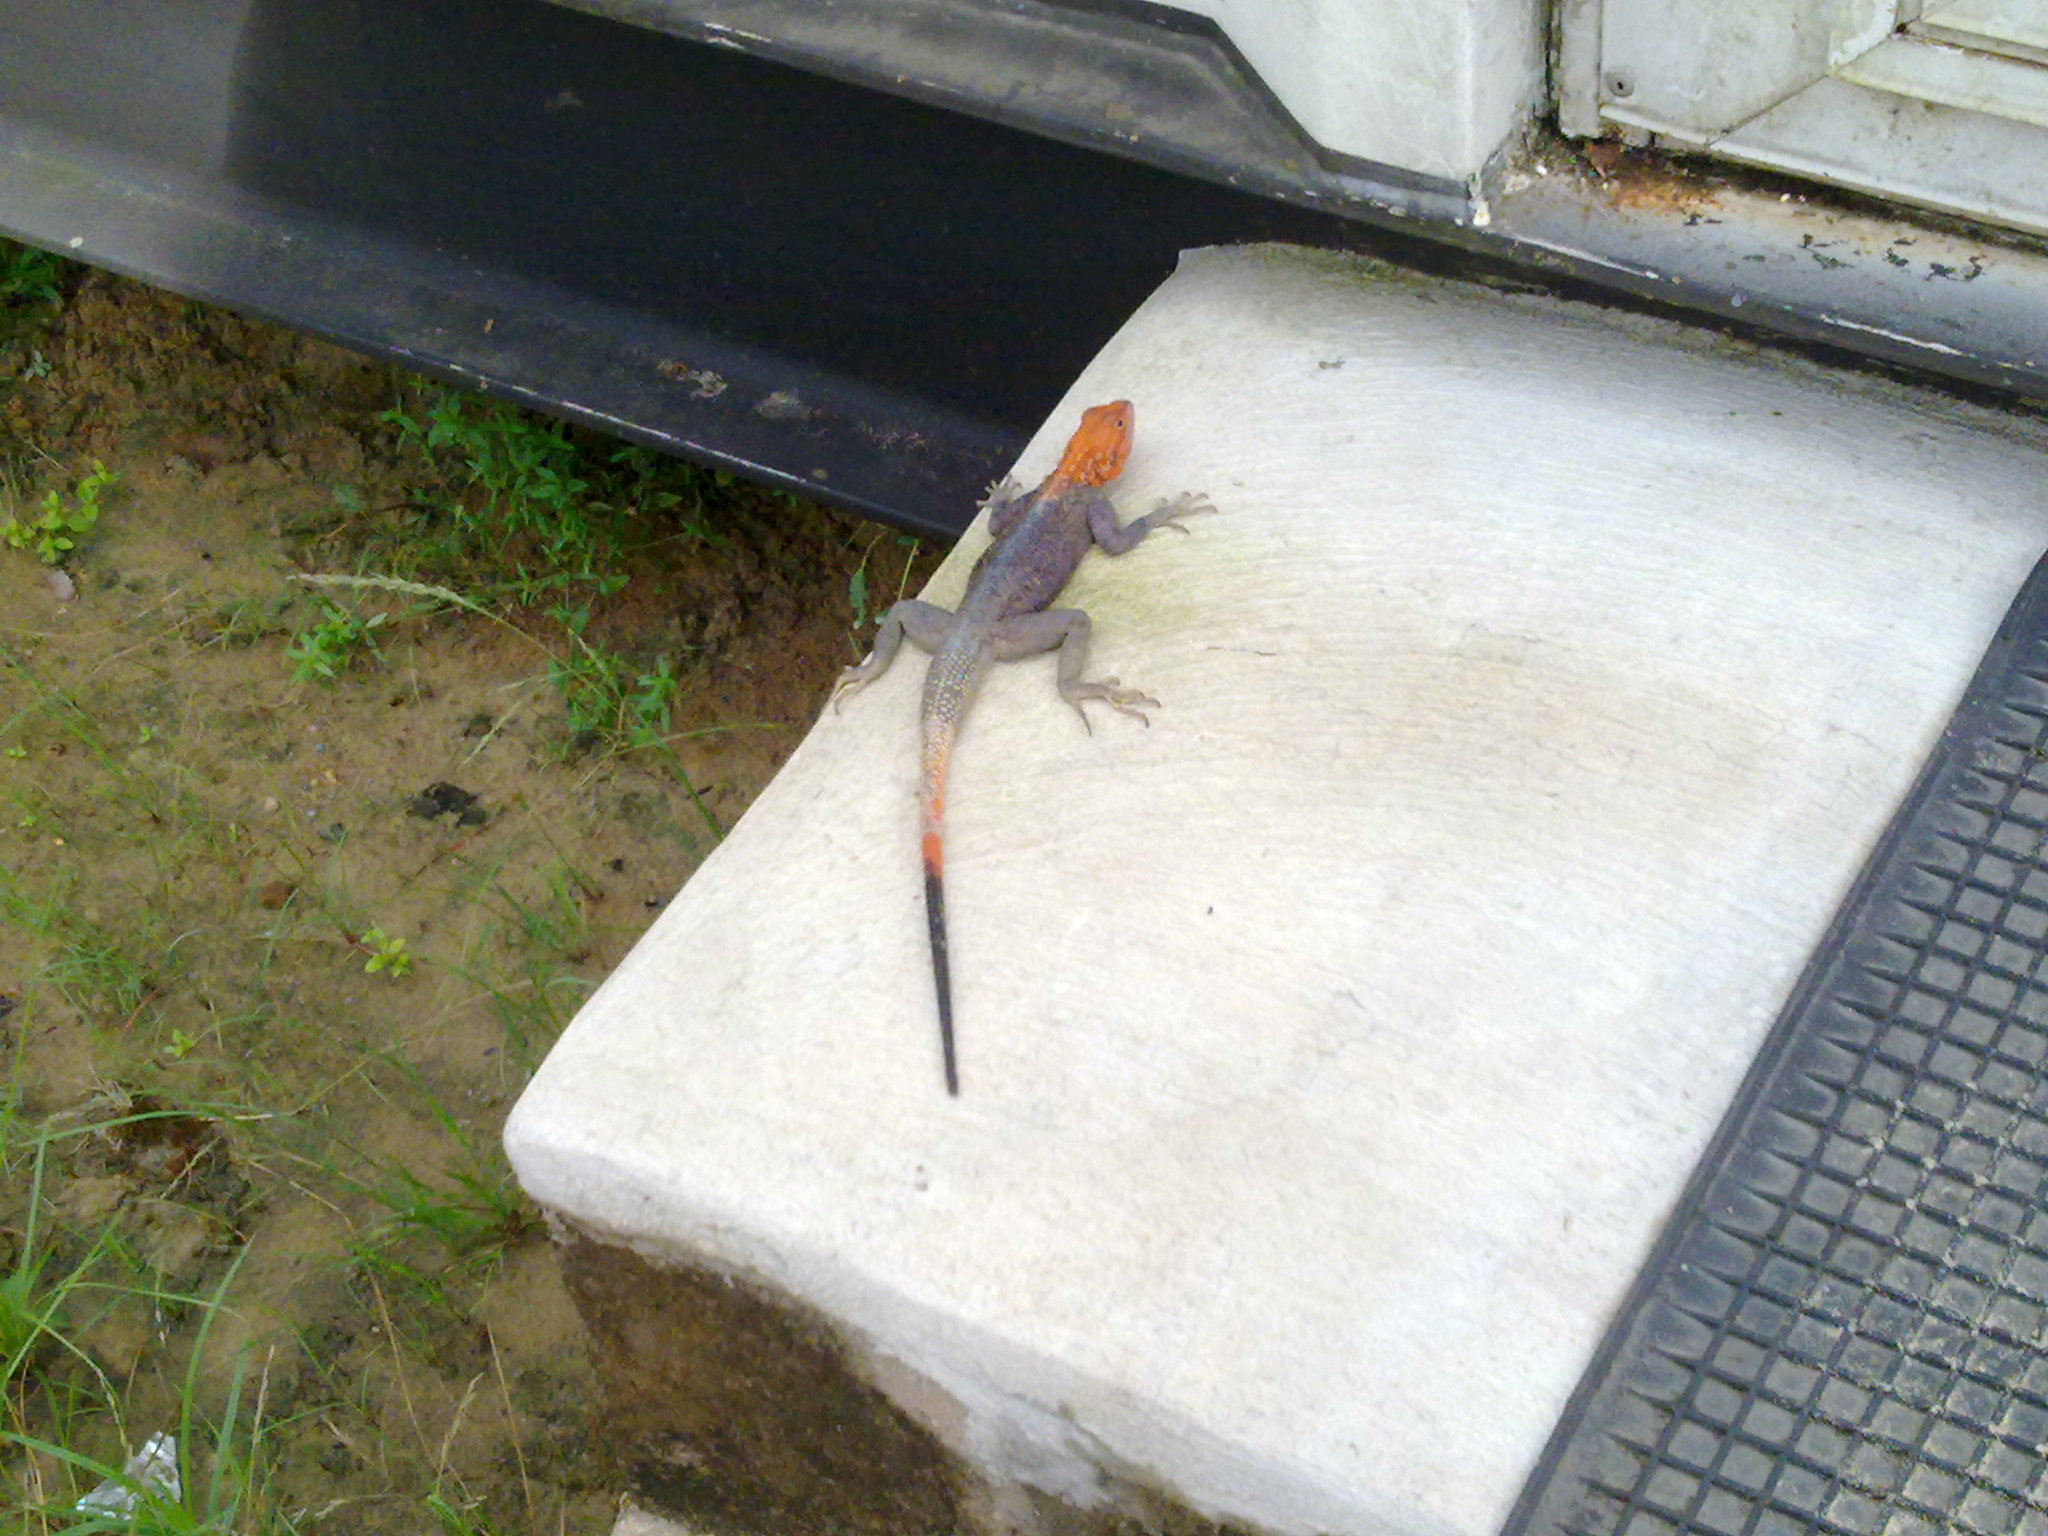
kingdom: Animalia
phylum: Chordata
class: Squamata
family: Agamidae
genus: Agama
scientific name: Agama agama
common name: Common agama
